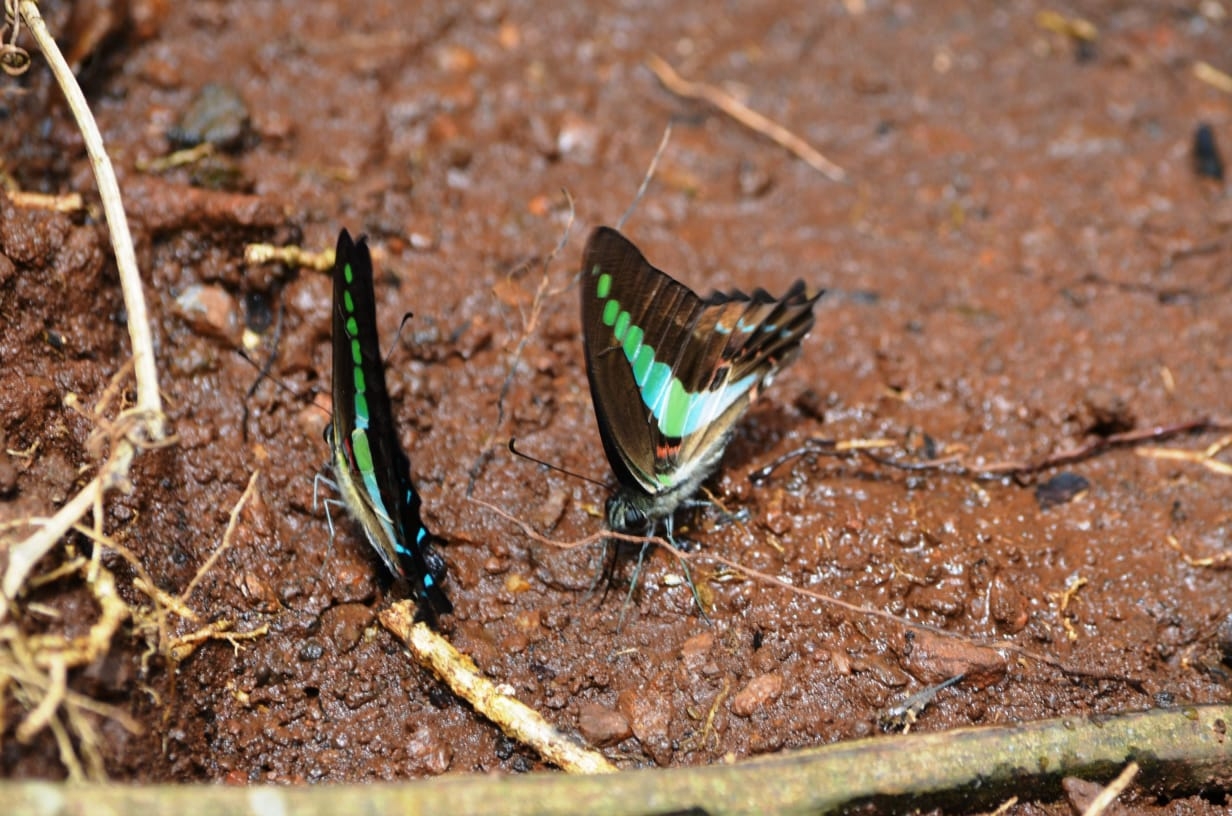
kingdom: Animalia
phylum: Arthropoda
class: Insecta
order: Lepidoptera
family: Papilionidae
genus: Graphium
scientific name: Graphium
